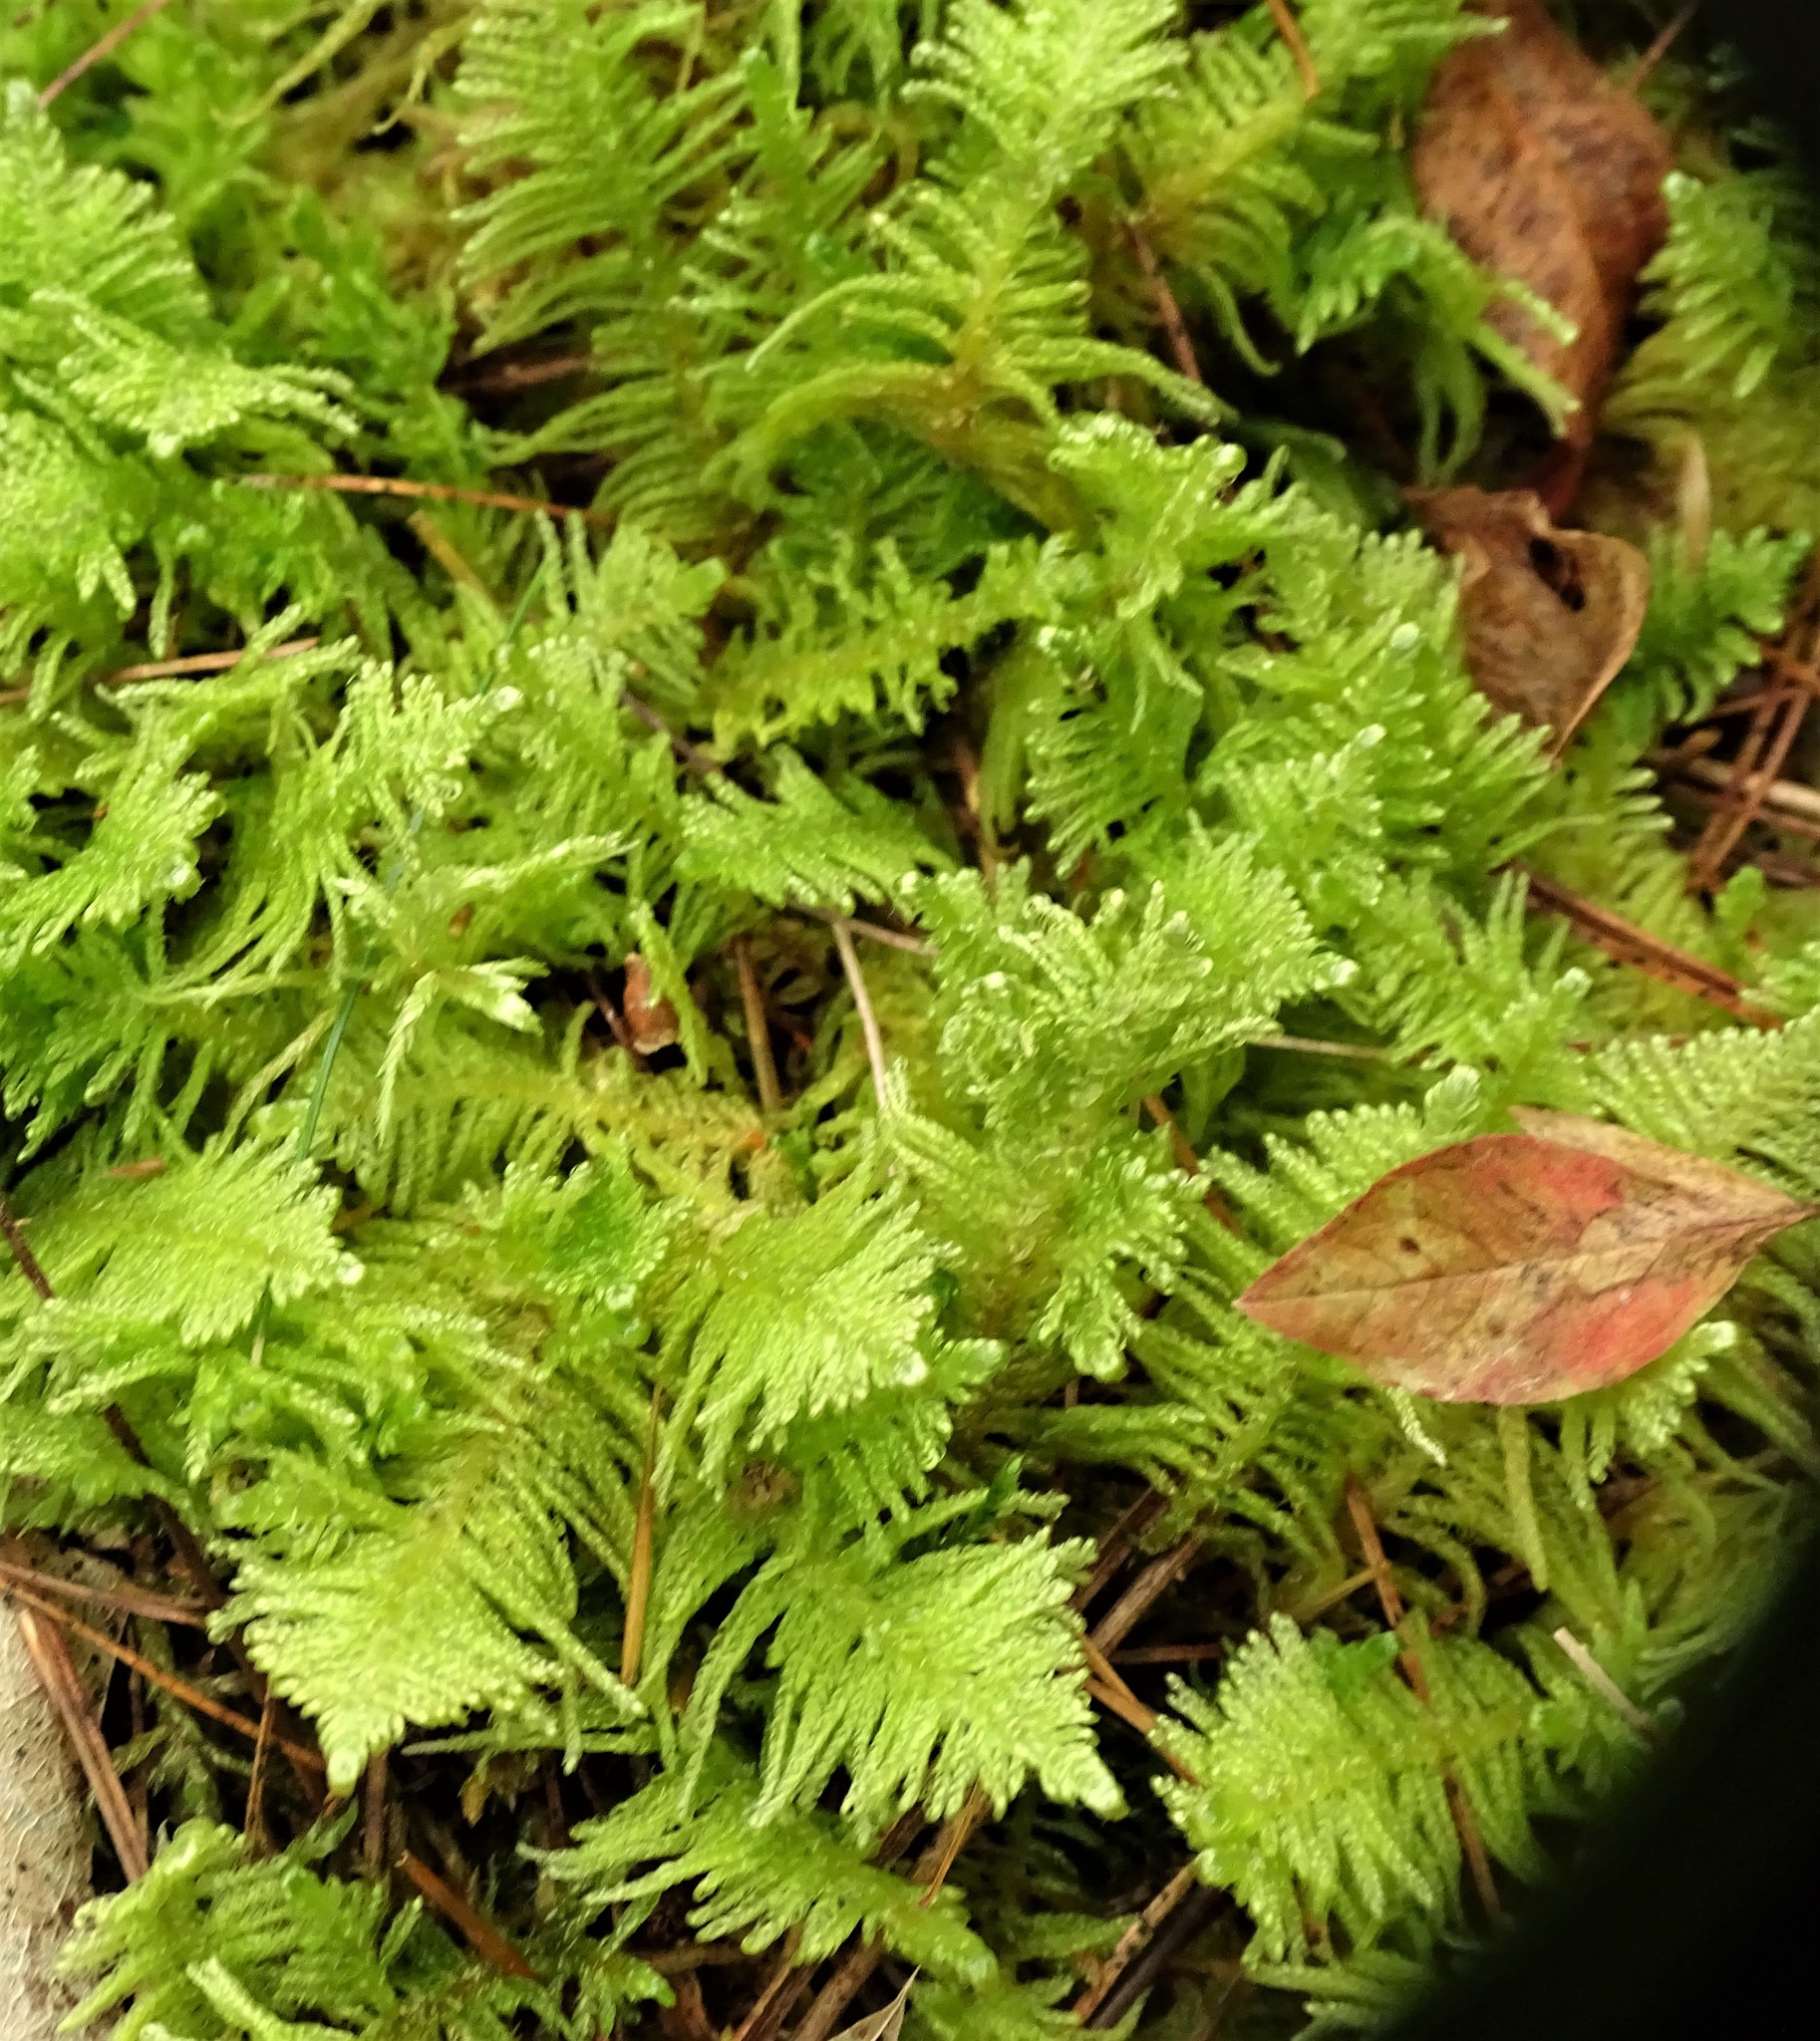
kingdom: Plantae
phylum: Bryophyta
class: Bryopsida
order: Hypnales
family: Pylaisiaceae
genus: Ptilium
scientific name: Ptilium crista-castrensis
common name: Knight's plume moss
